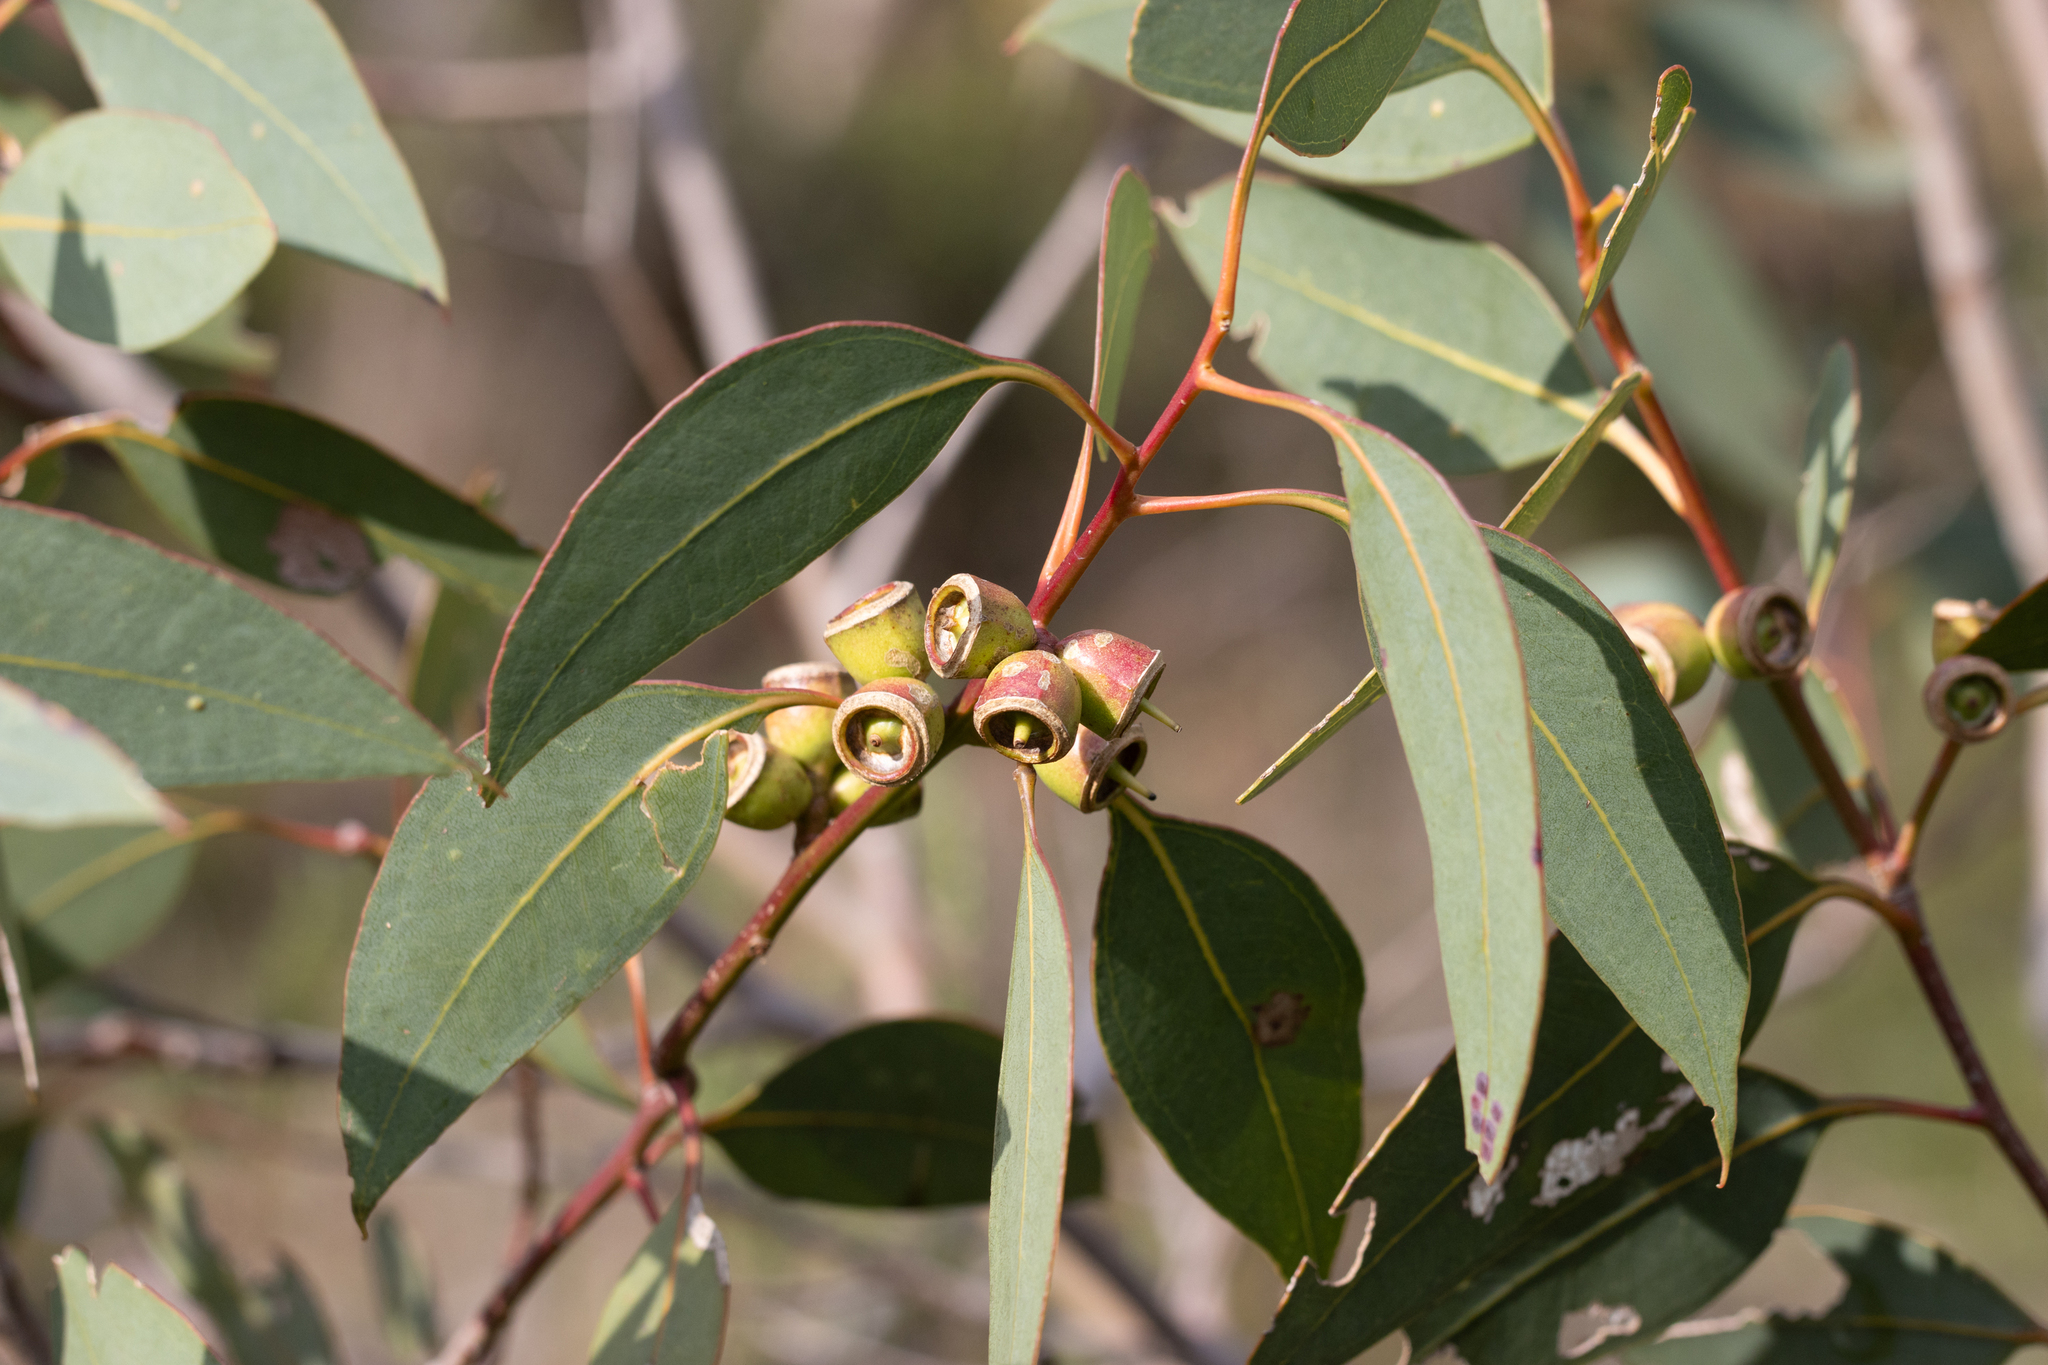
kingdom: Plantae
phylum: Tracheophyta
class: Magnoliopsida
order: Myrtales
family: Myrtaceae
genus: Eucalyptus
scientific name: Eucalyptus cosmophylla
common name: Bog-gum
